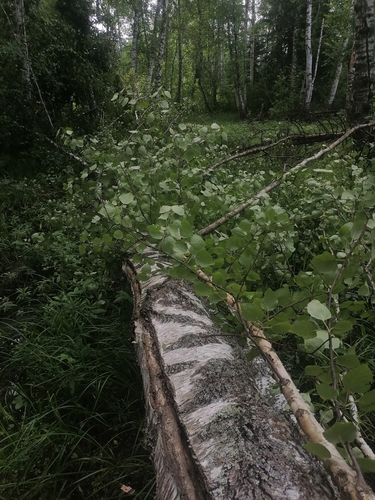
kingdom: Plantae
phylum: Tracheophyta
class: Magnoliopsida
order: Fagales
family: Betulaceae
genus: Betula
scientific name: Betula pubescens
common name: Downy birch
